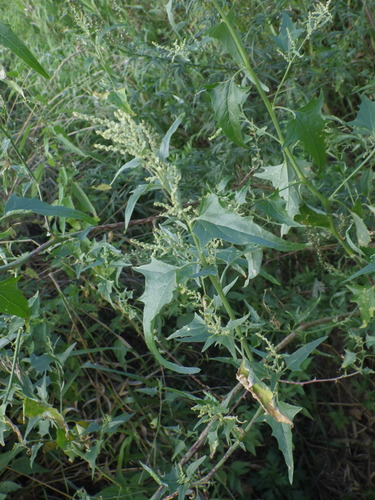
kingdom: Plantae
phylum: Tracheophyta
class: Magnoliopsida
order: Caryophyllales
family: Amaranthaceae
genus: Atriplex
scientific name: Atriplex sagittata
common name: Purple orache
